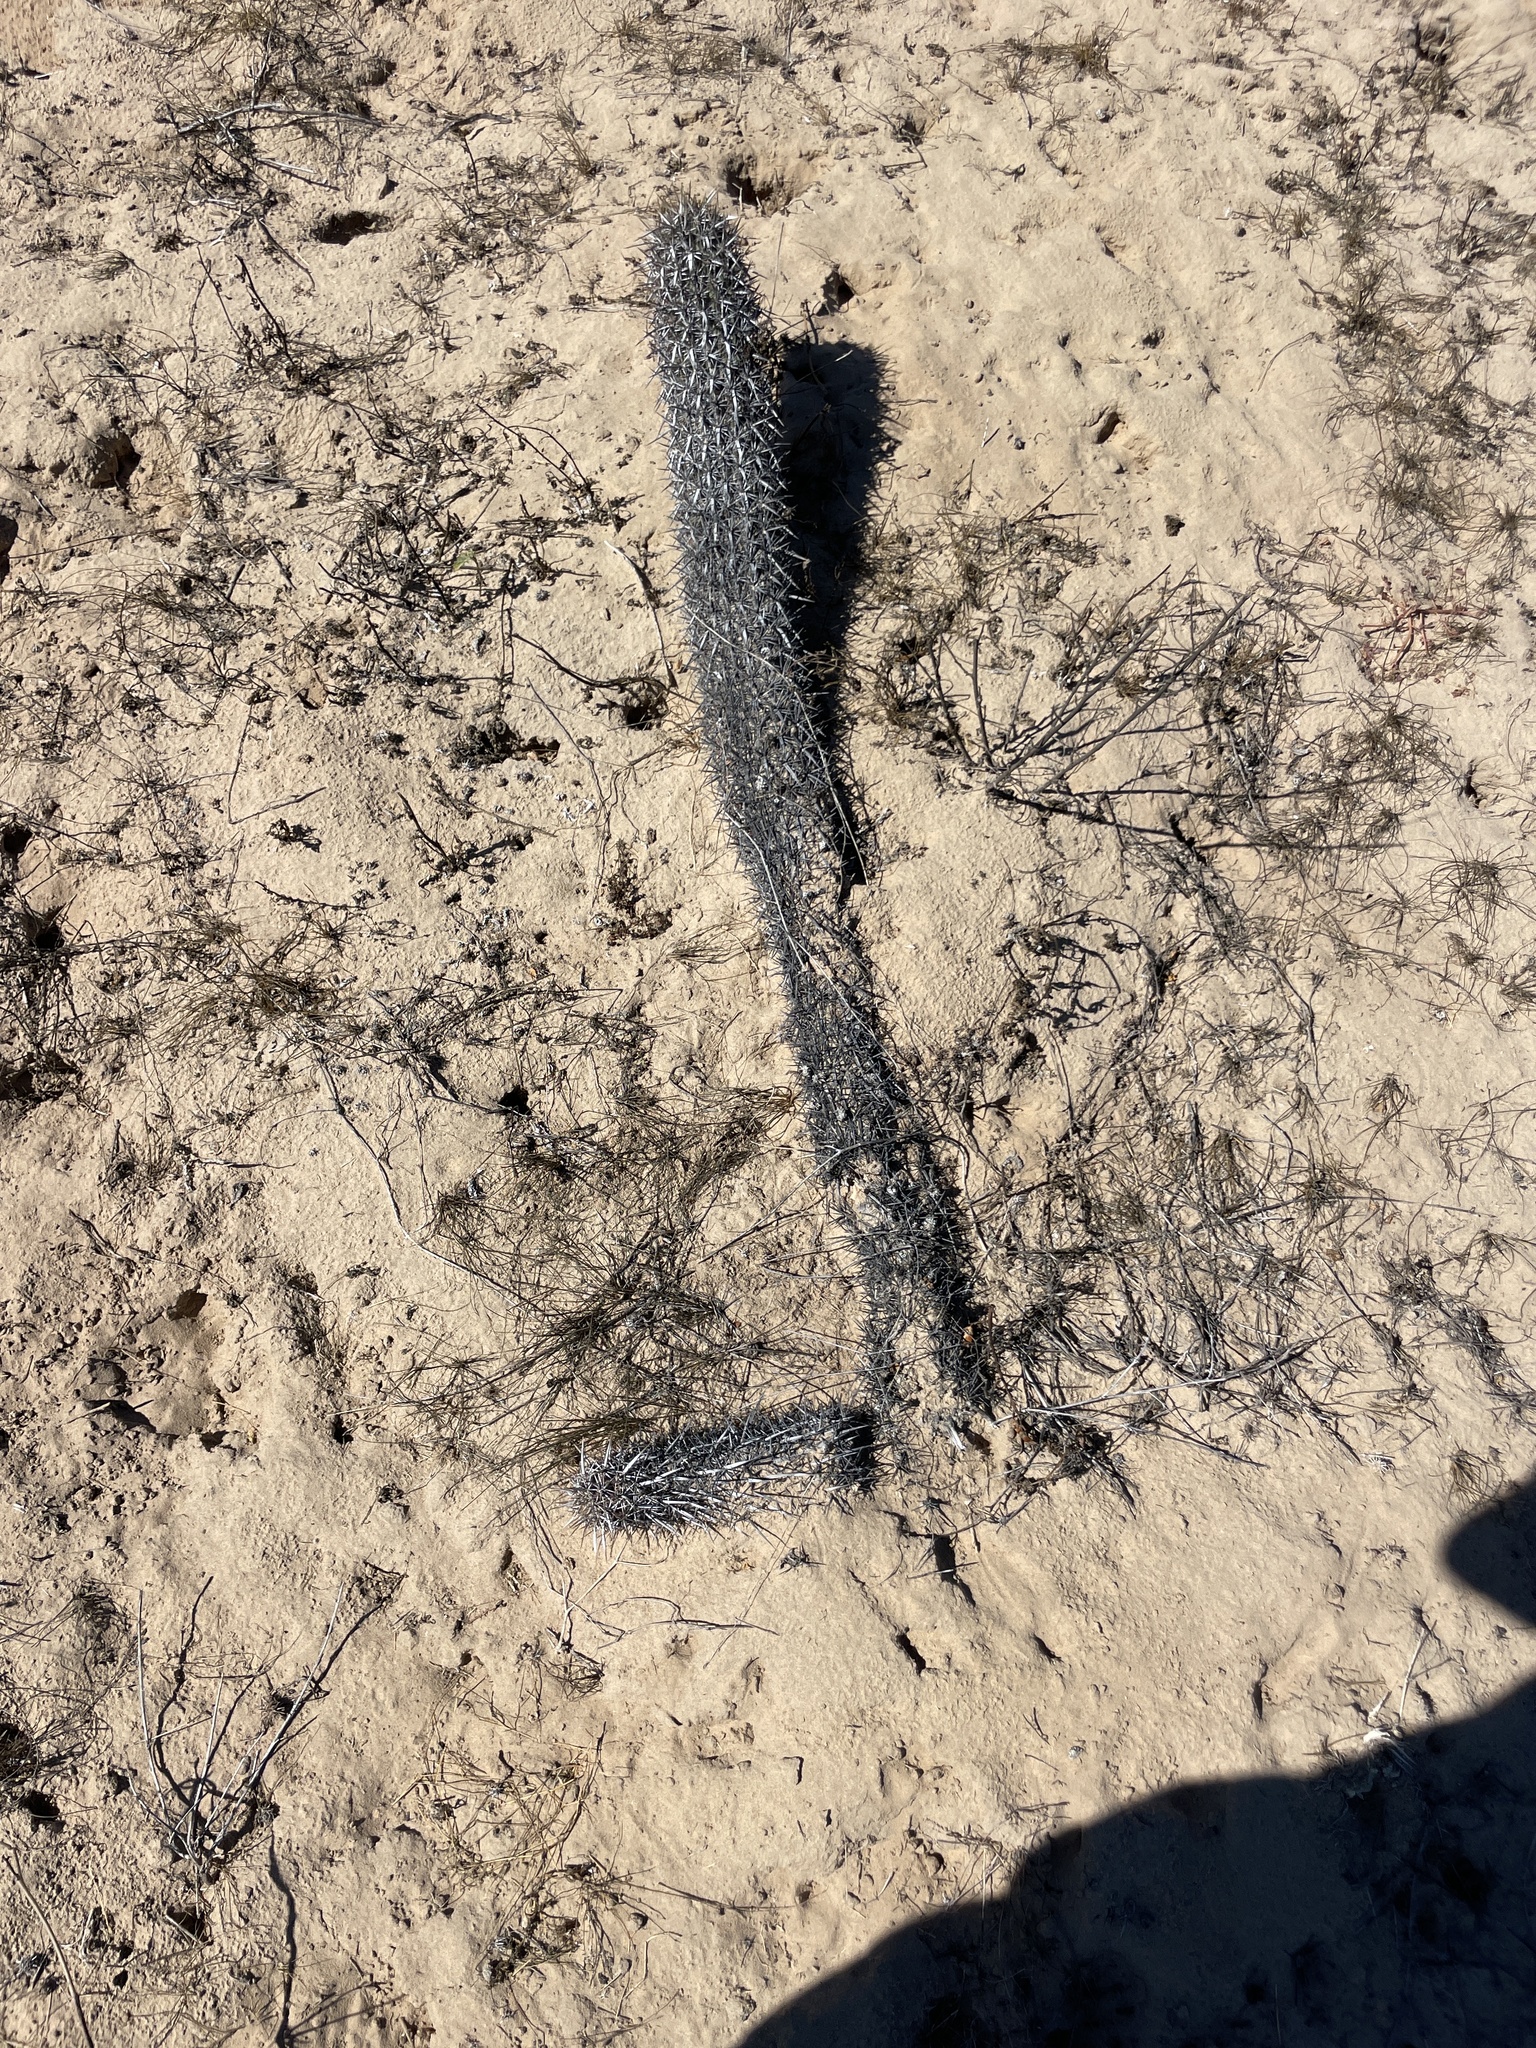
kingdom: Plantae
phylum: Tracheophyta
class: Magnoliopsida
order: Caryophyllales
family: Cactaceae
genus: Stenocereus
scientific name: Stenocereus eruca
